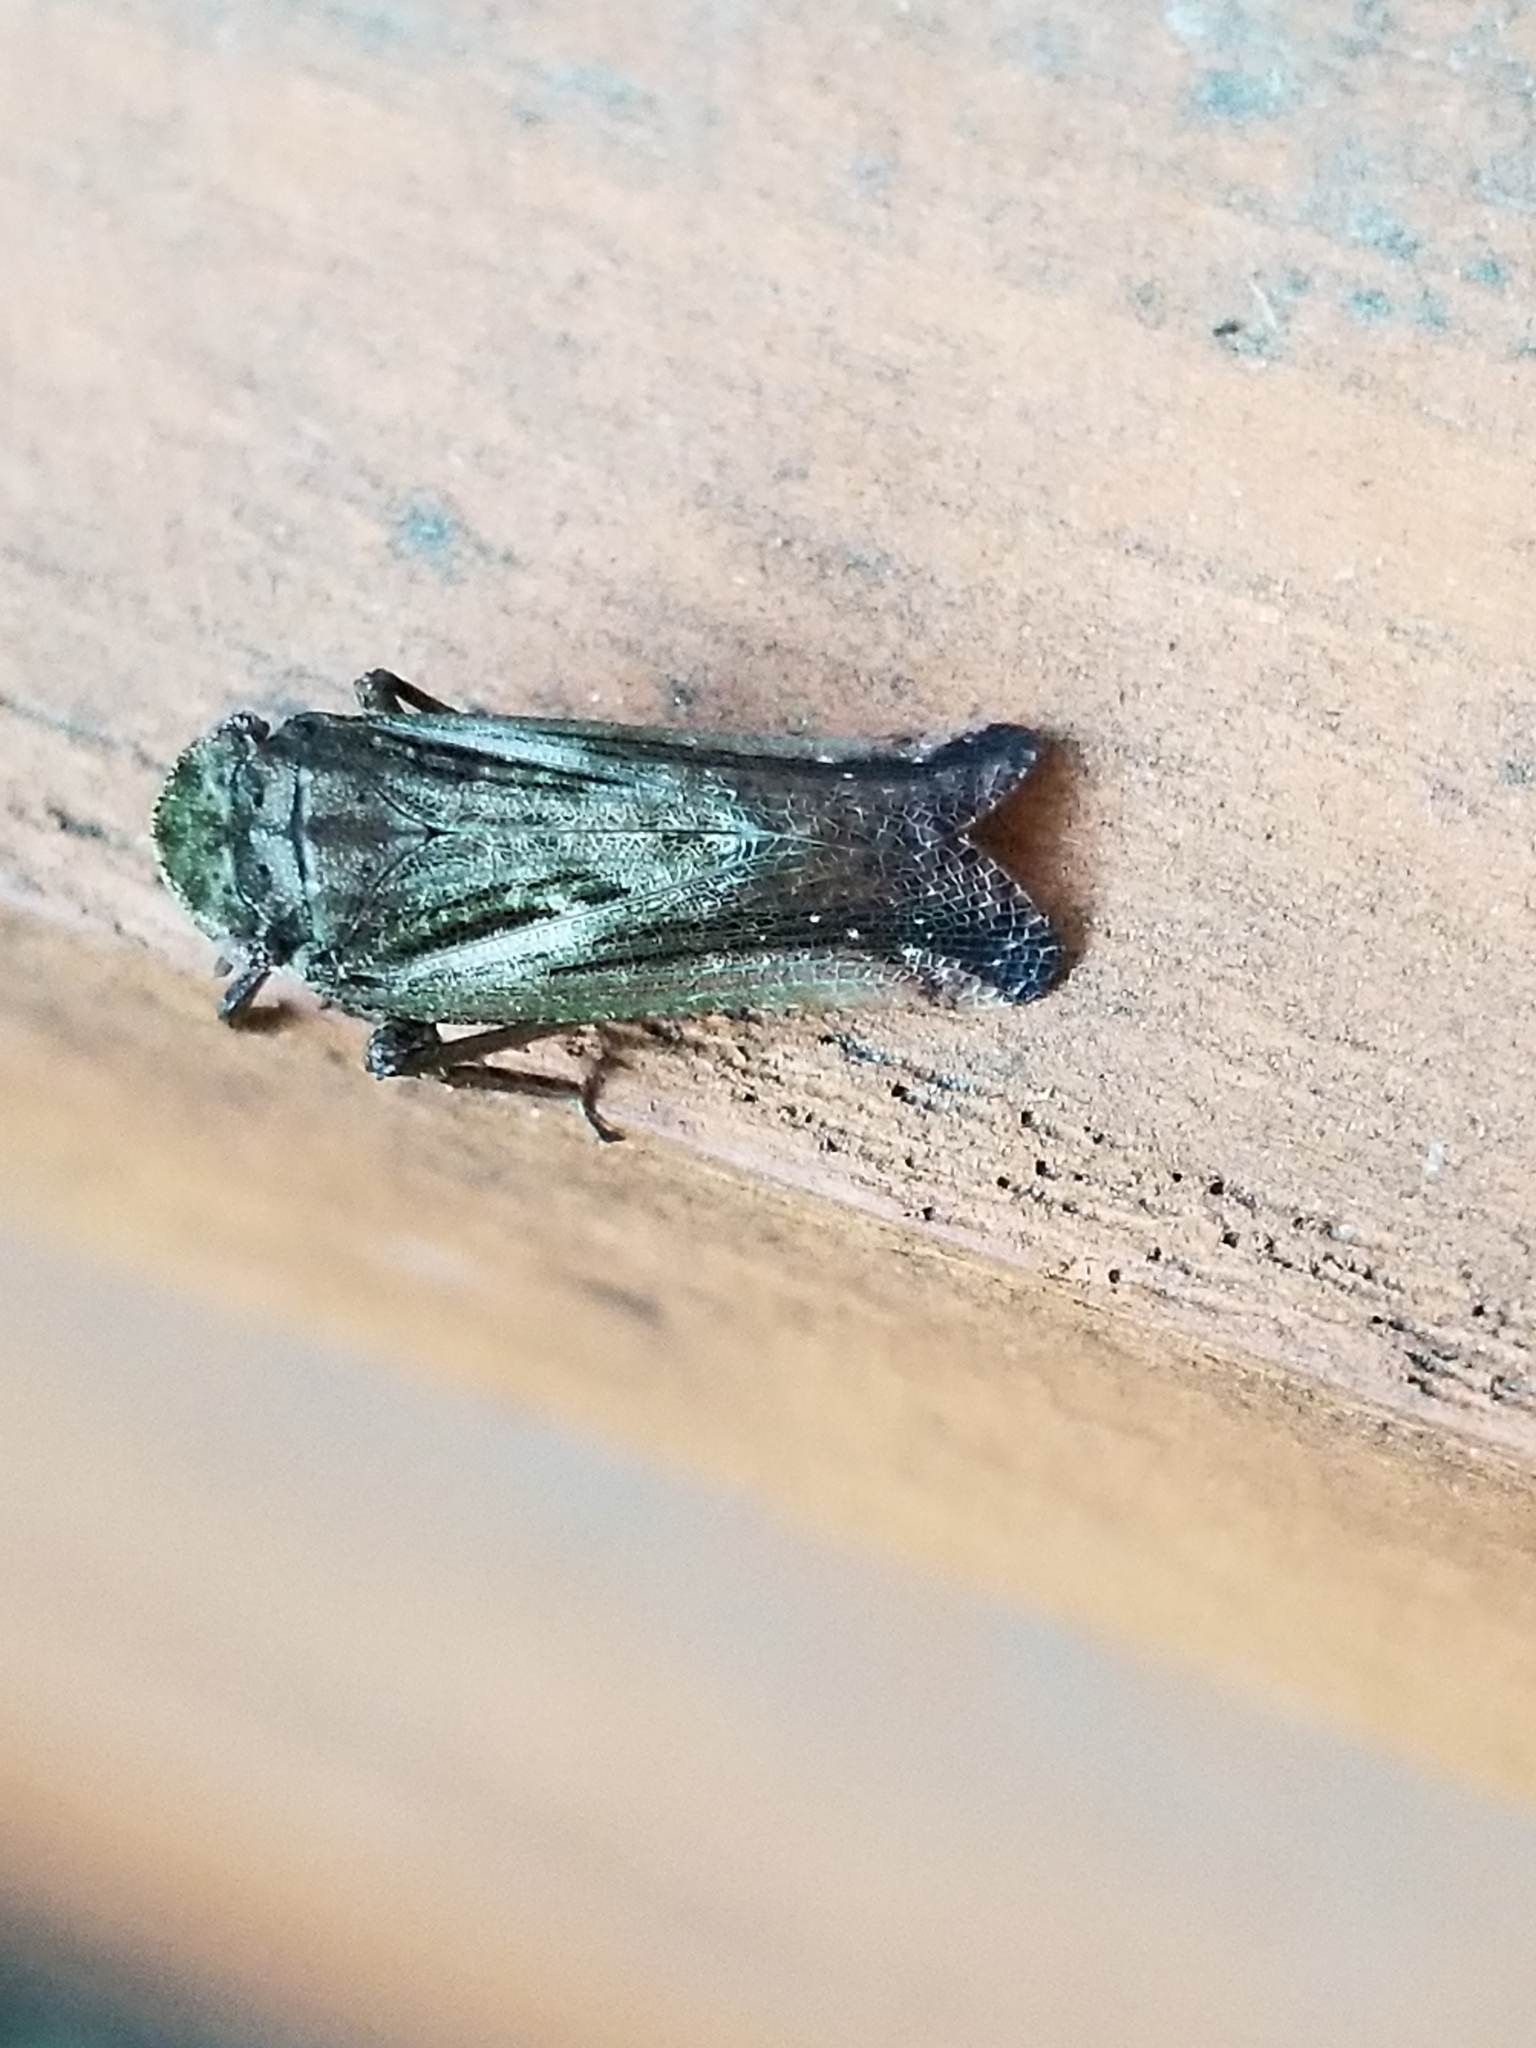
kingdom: Animalia
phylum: Arthropoda
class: Insecta
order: Hemiptera
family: Fulgoridae
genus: Cyrpoptus
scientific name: Cyrpoptus belfragei
